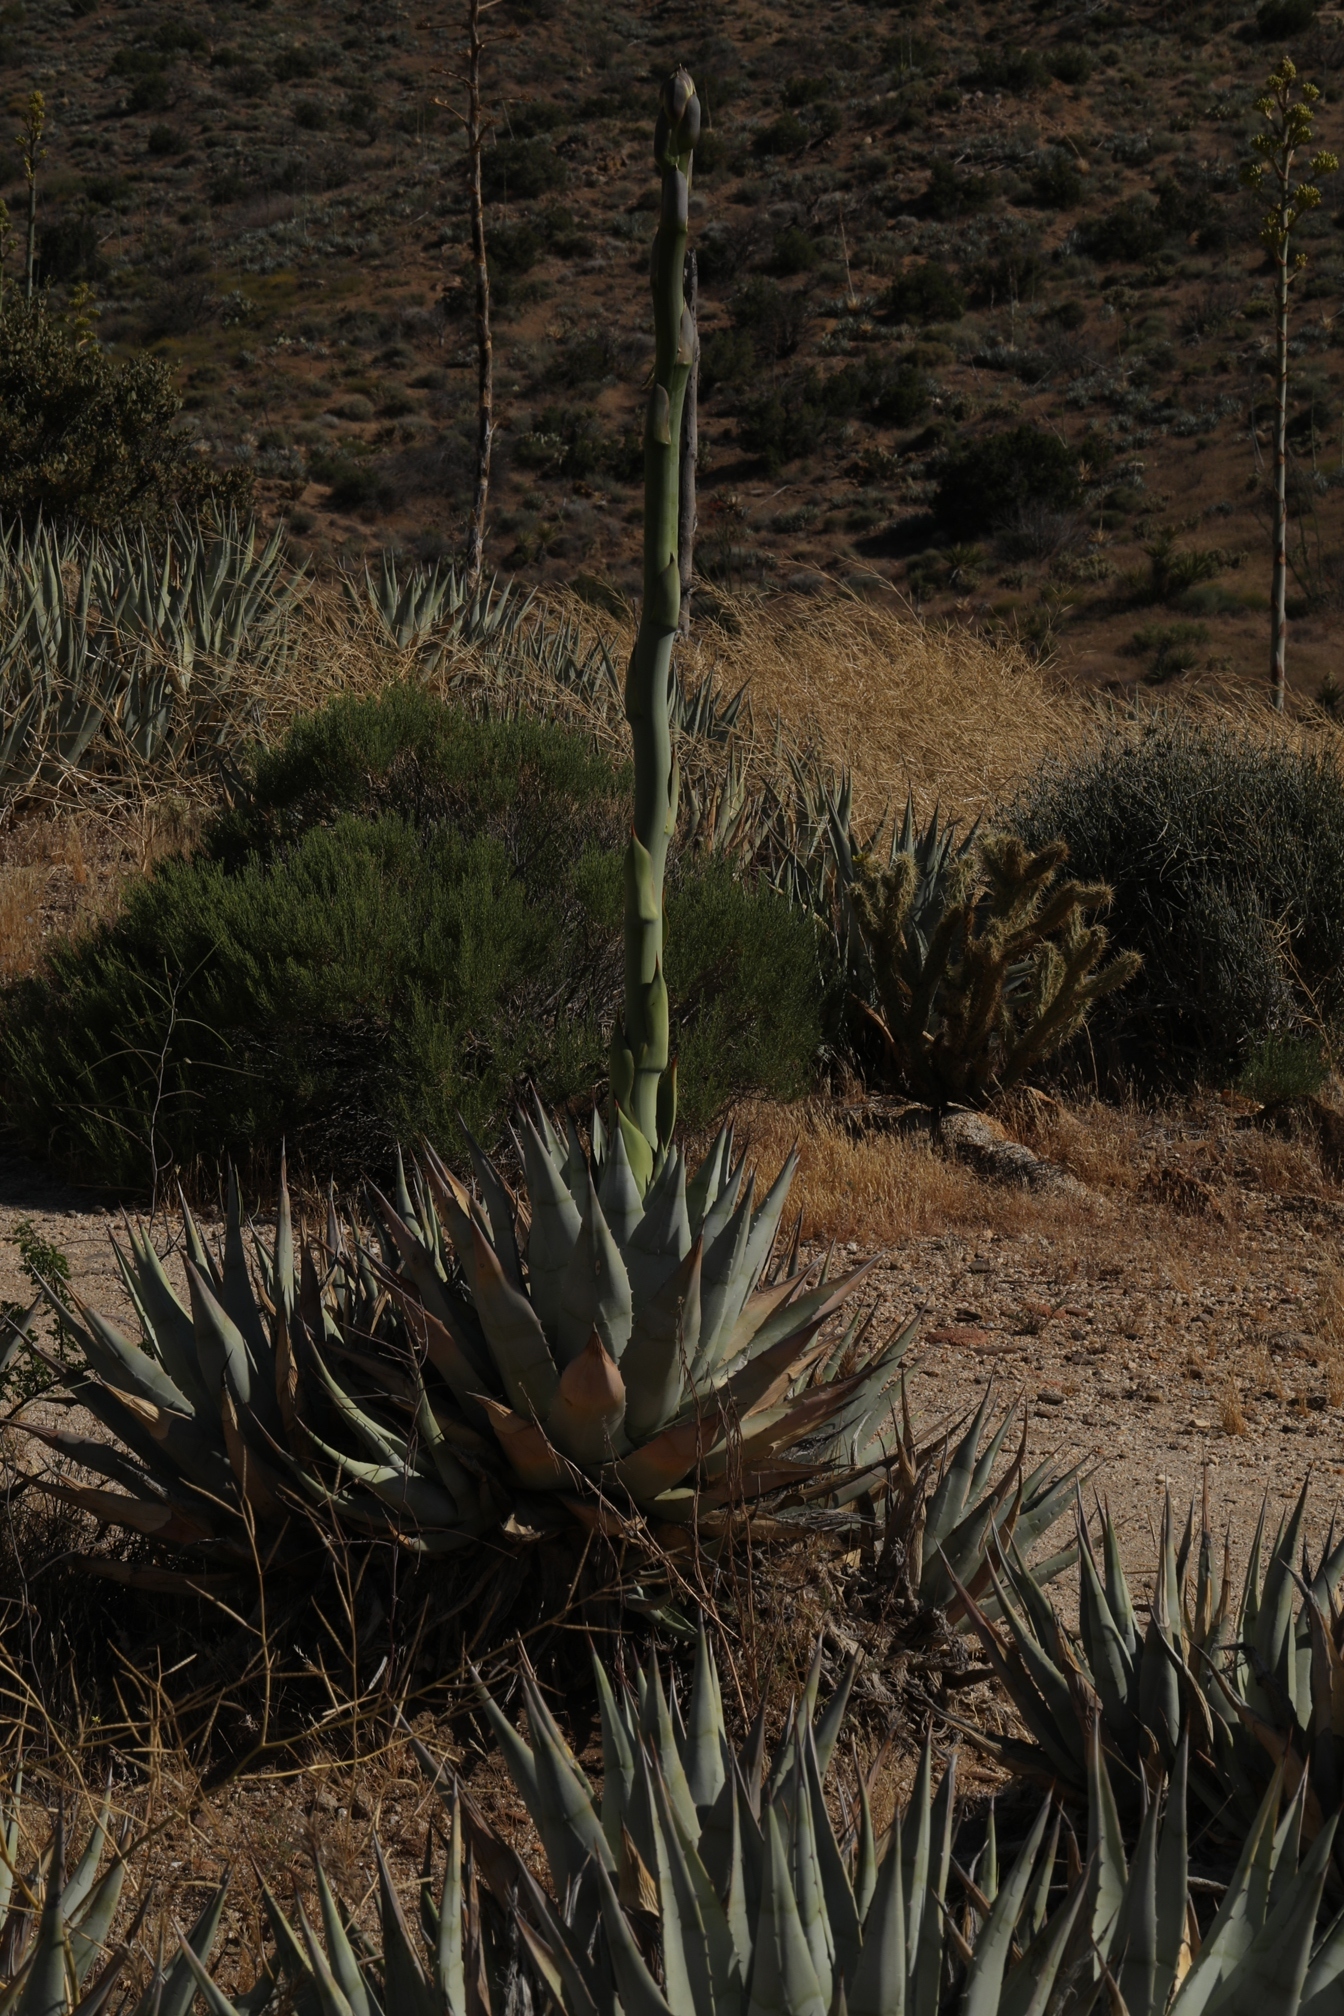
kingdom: Plantae
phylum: Tracheophyta
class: Liliopsida
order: Asparagales
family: Asparagaceae
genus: Agave
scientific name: Agave deserti
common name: Desert agave
